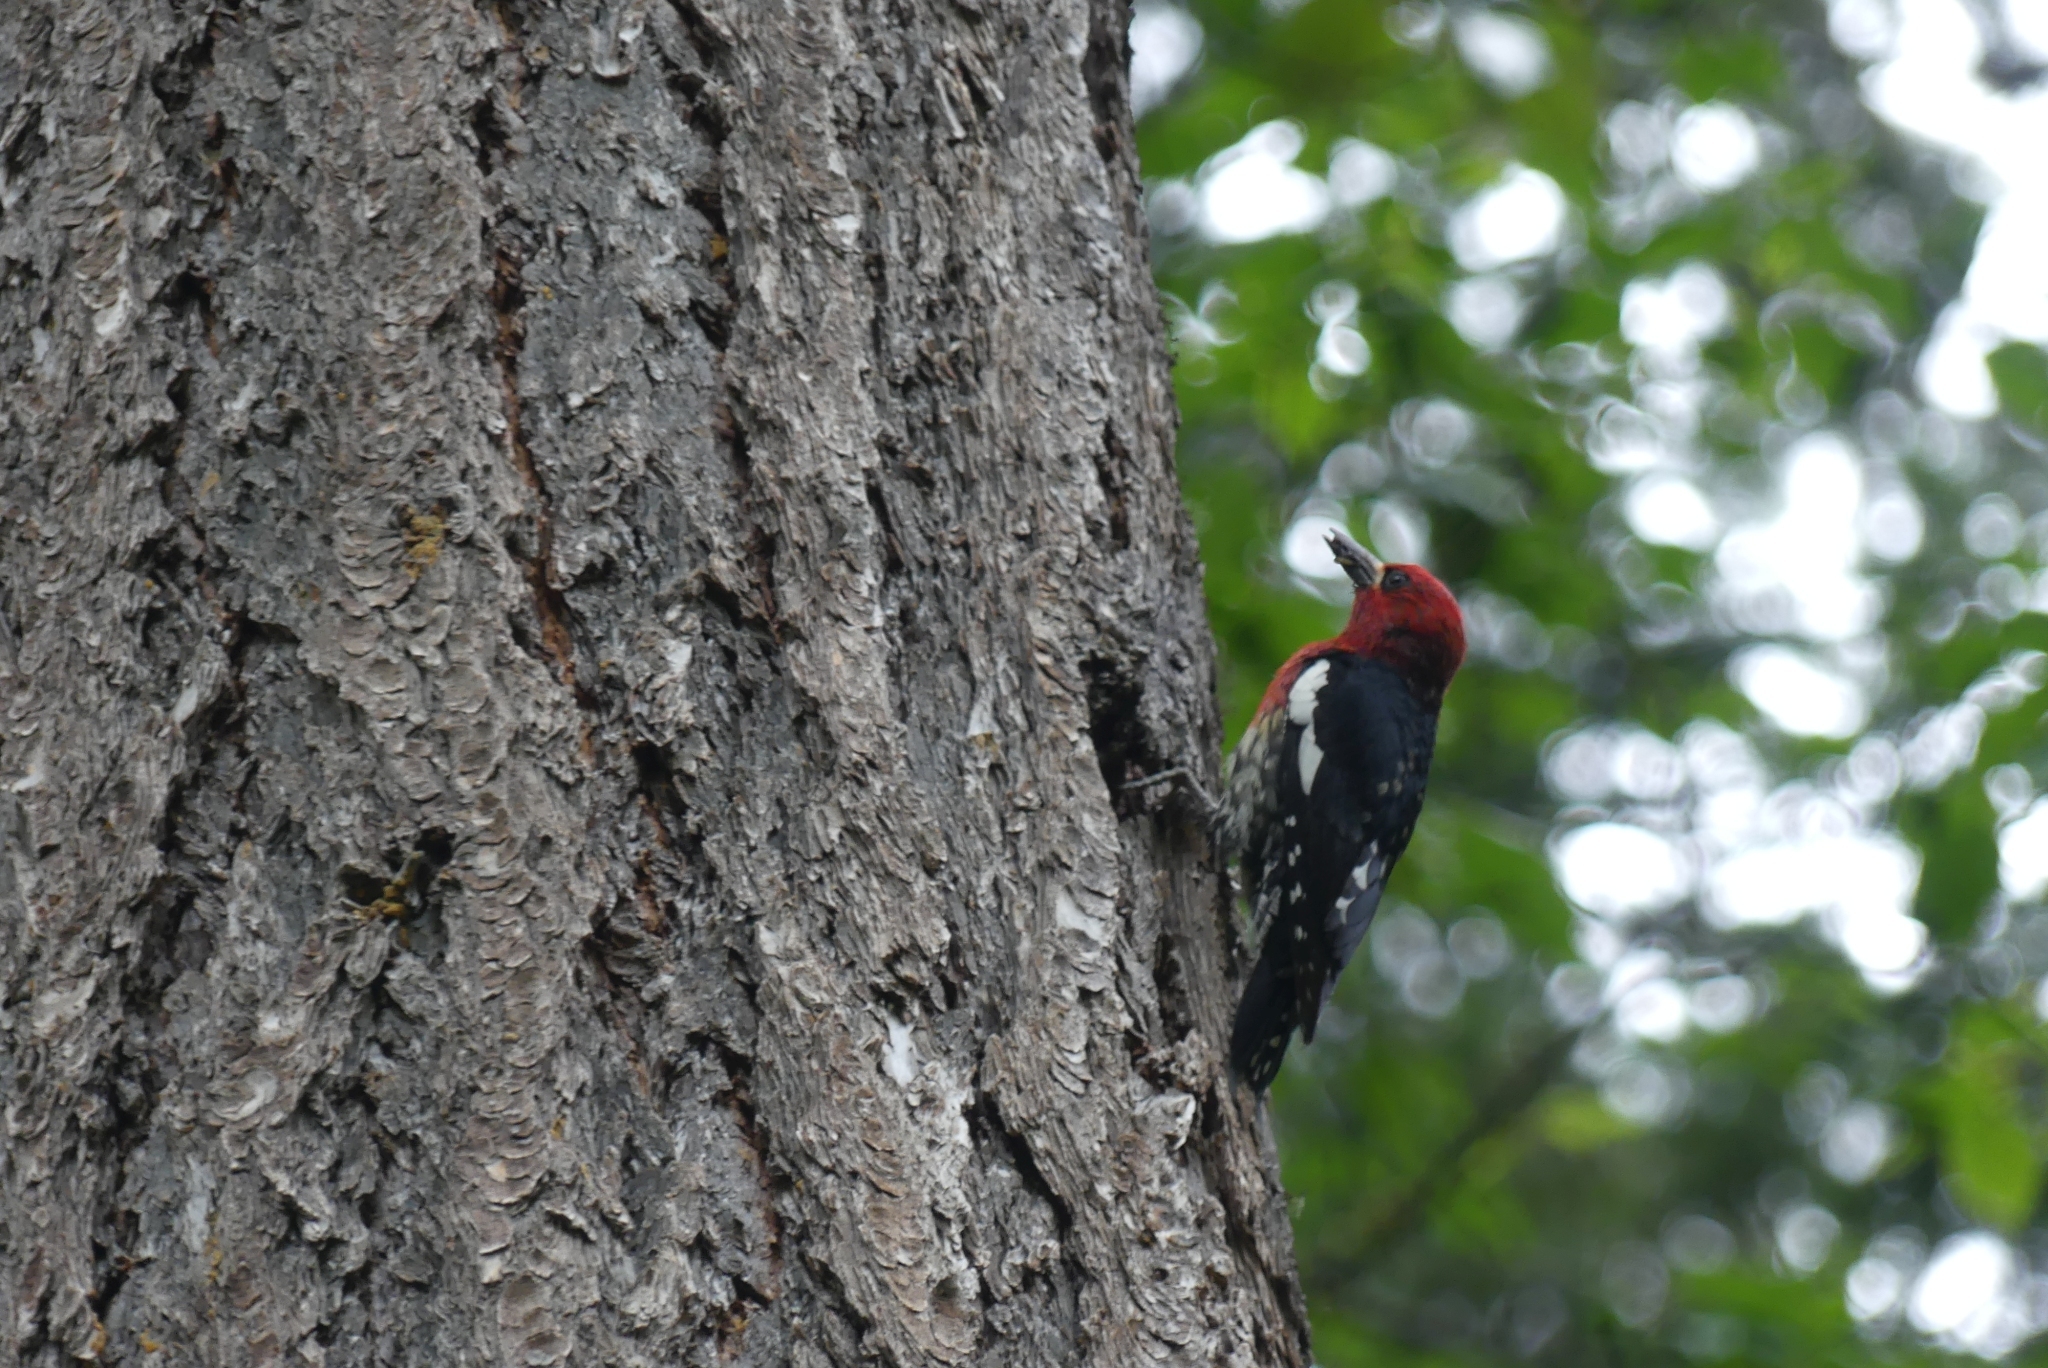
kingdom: Animalia
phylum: Chordata
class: Aves
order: Piciformes
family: Picidae
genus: Sphyrapicus
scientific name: Sphyrapicus ruber
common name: Red-breasted sapsucker
